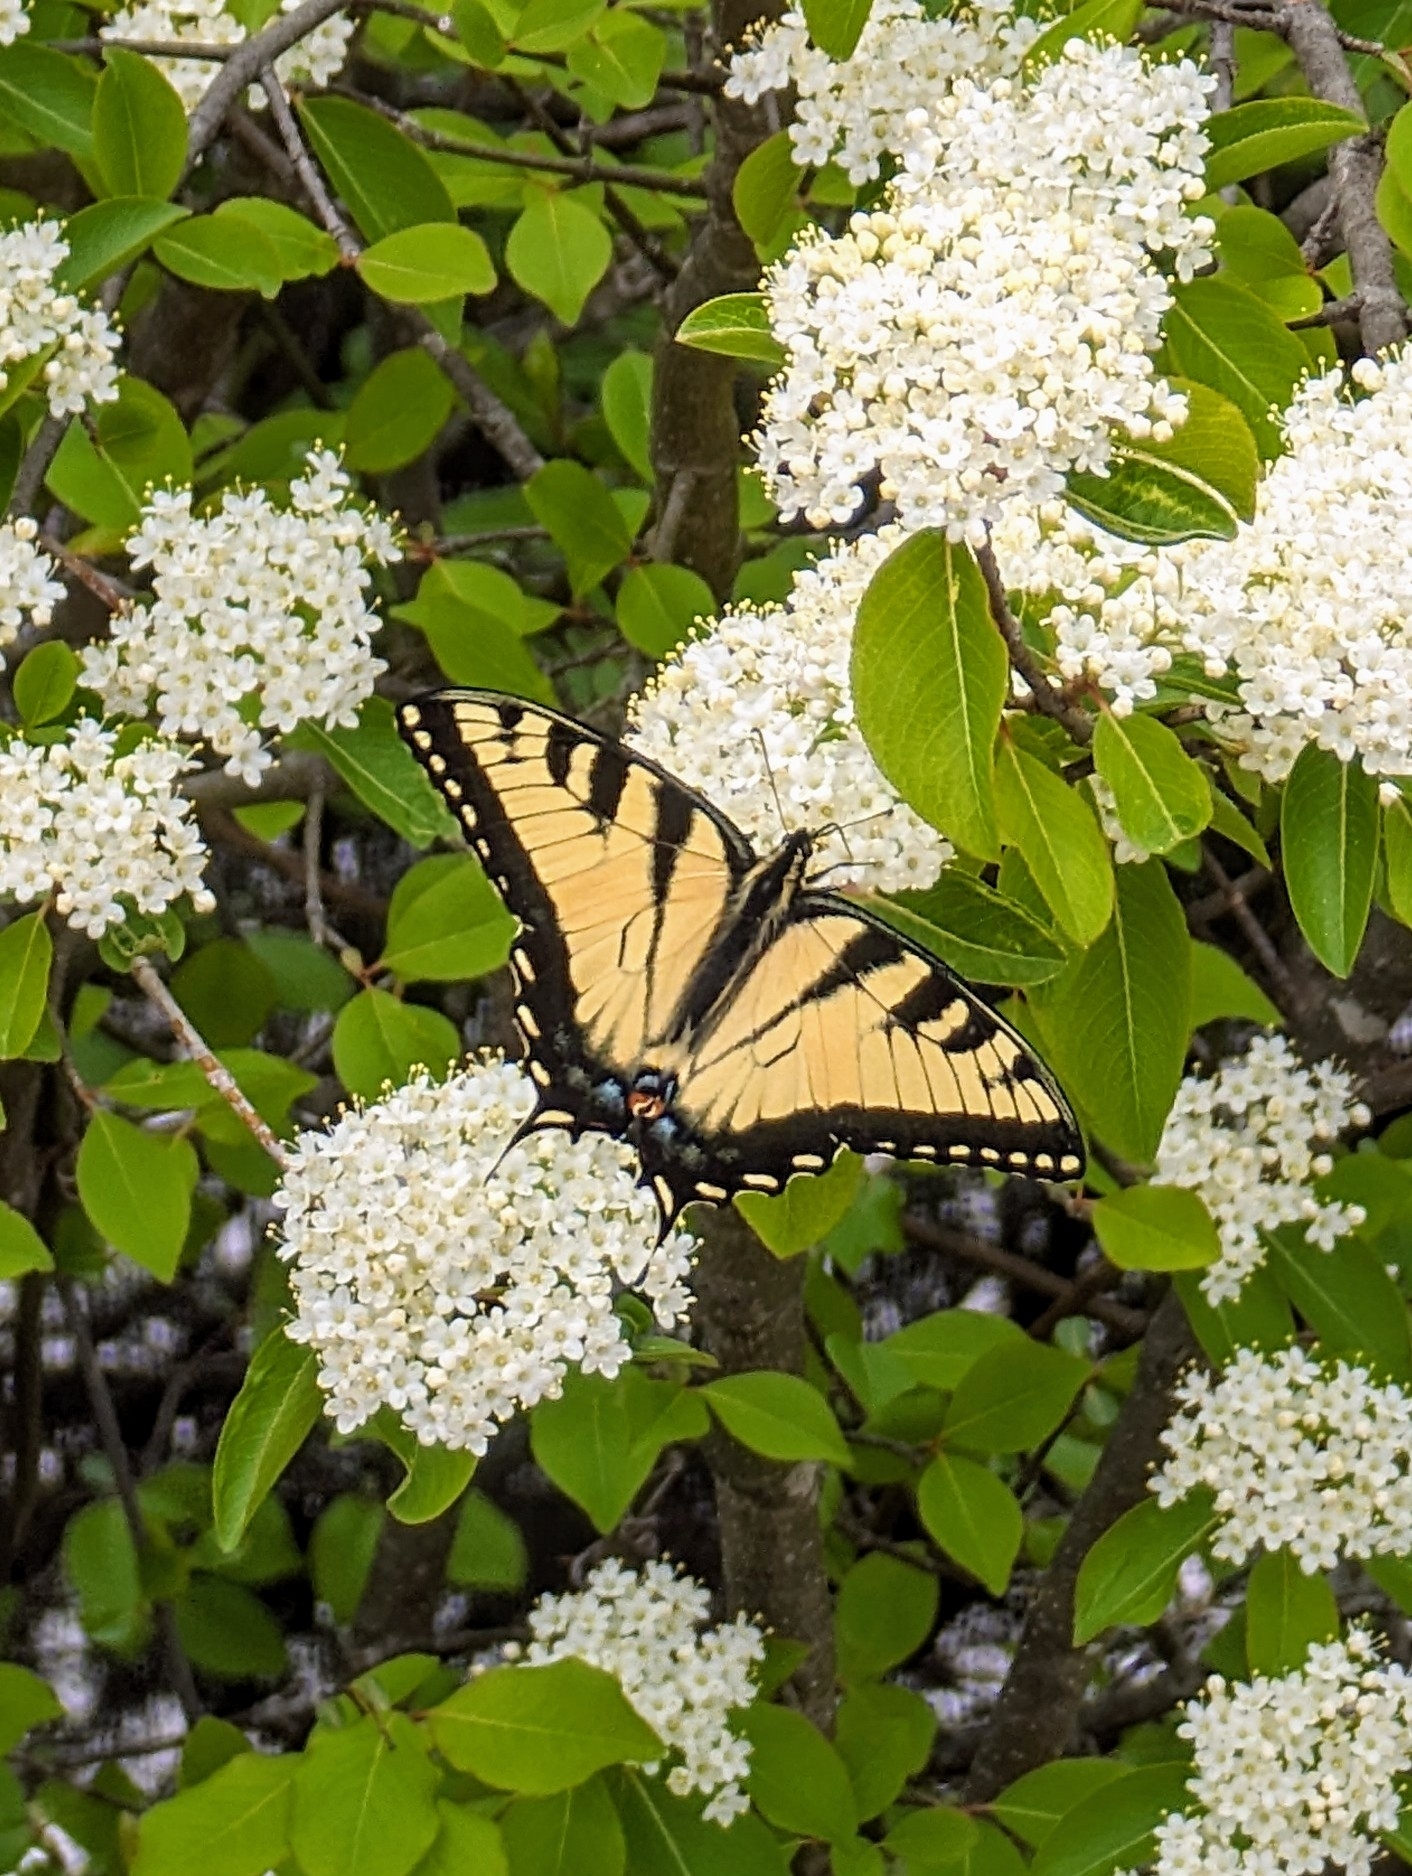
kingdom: Animalia
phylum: Arthropoda
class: Insecta
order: Lepidoptera
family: Papilionidae
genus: Papilio
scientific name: Papilio glaucus
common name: Tiger swallowtail
